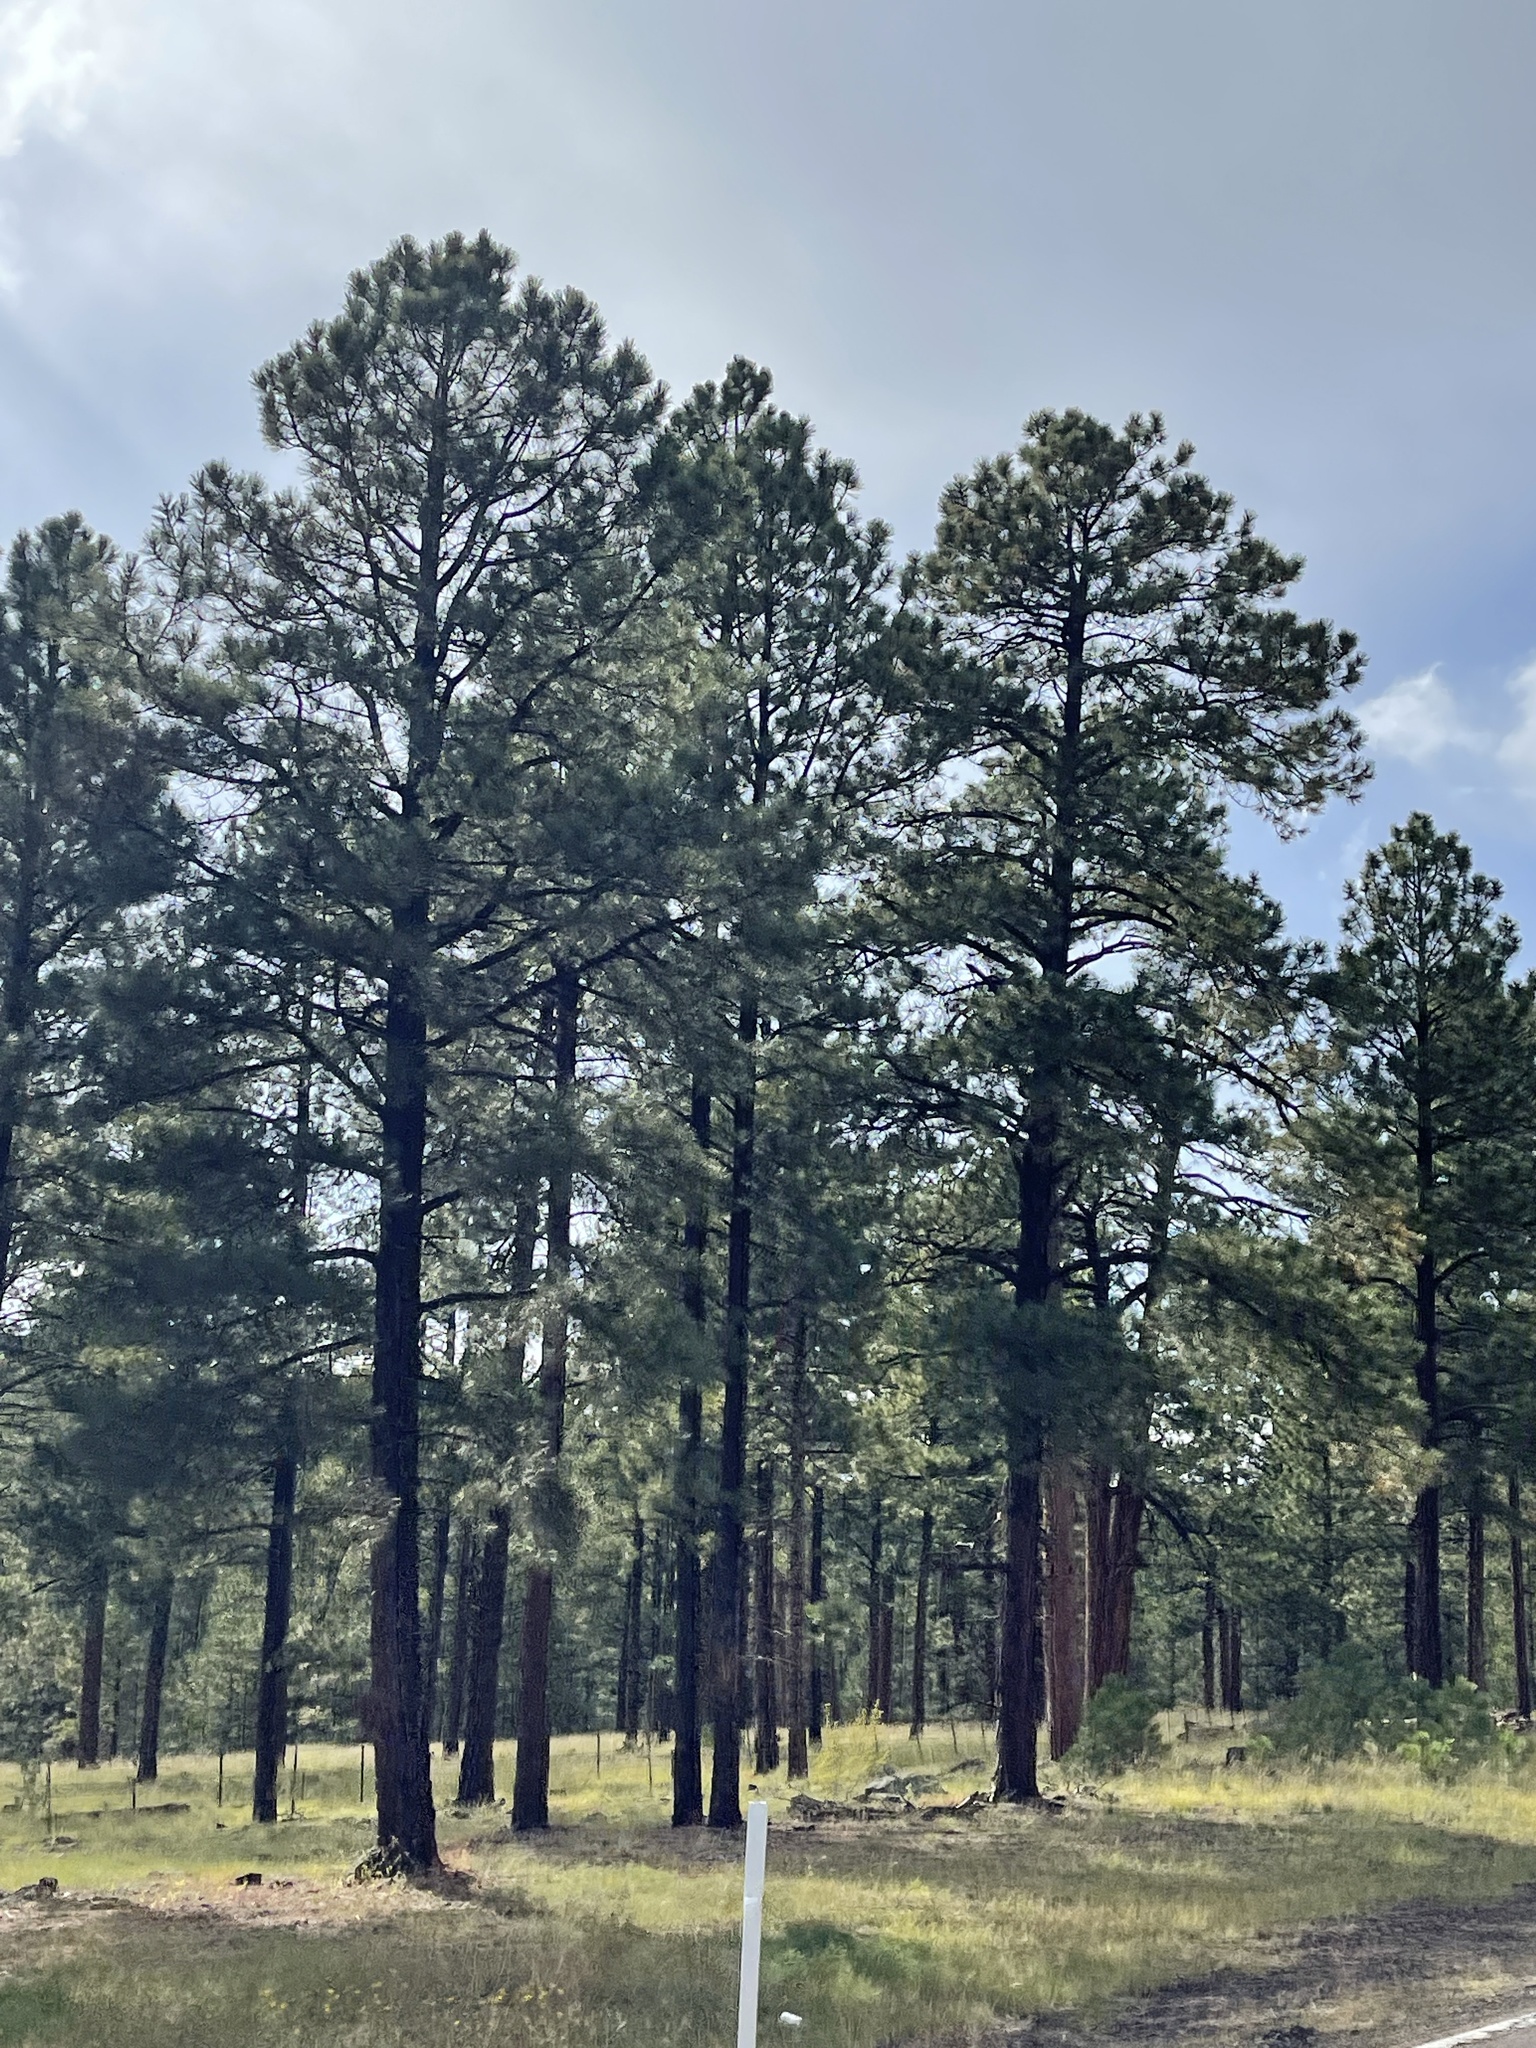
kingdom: Plantae
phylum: Tracheophyta
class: Pinopsida
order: Pinales
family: Pinaceae
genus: Pinus
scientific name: Pinus ponderosa
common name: Western yellow-pine
